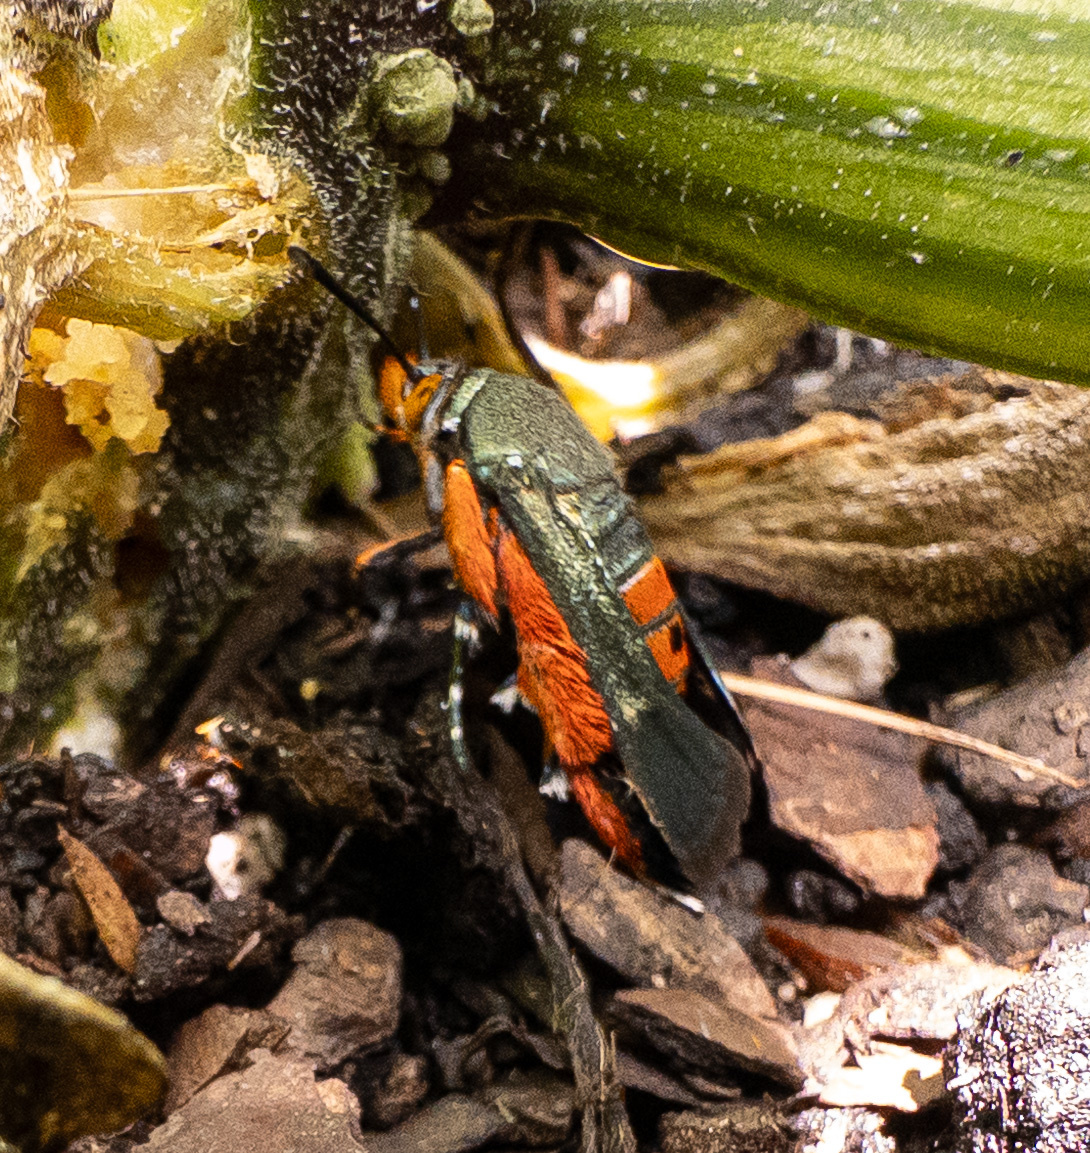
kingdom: Animalia
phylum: Arthropoda
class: Insecta
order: Lepidoptera
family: Sesiidae
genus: Eichlinia
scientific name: Eichlinia cucurbitae
